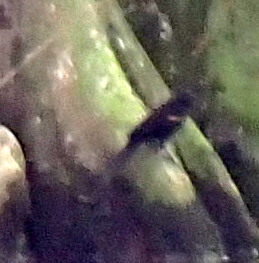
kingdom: Animalia
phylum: Chordata
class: Aves
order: Passeriformes
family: Icteridae
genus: Agelaius
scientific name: Agelaius phoeniceus
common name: Red-winged blackbird
